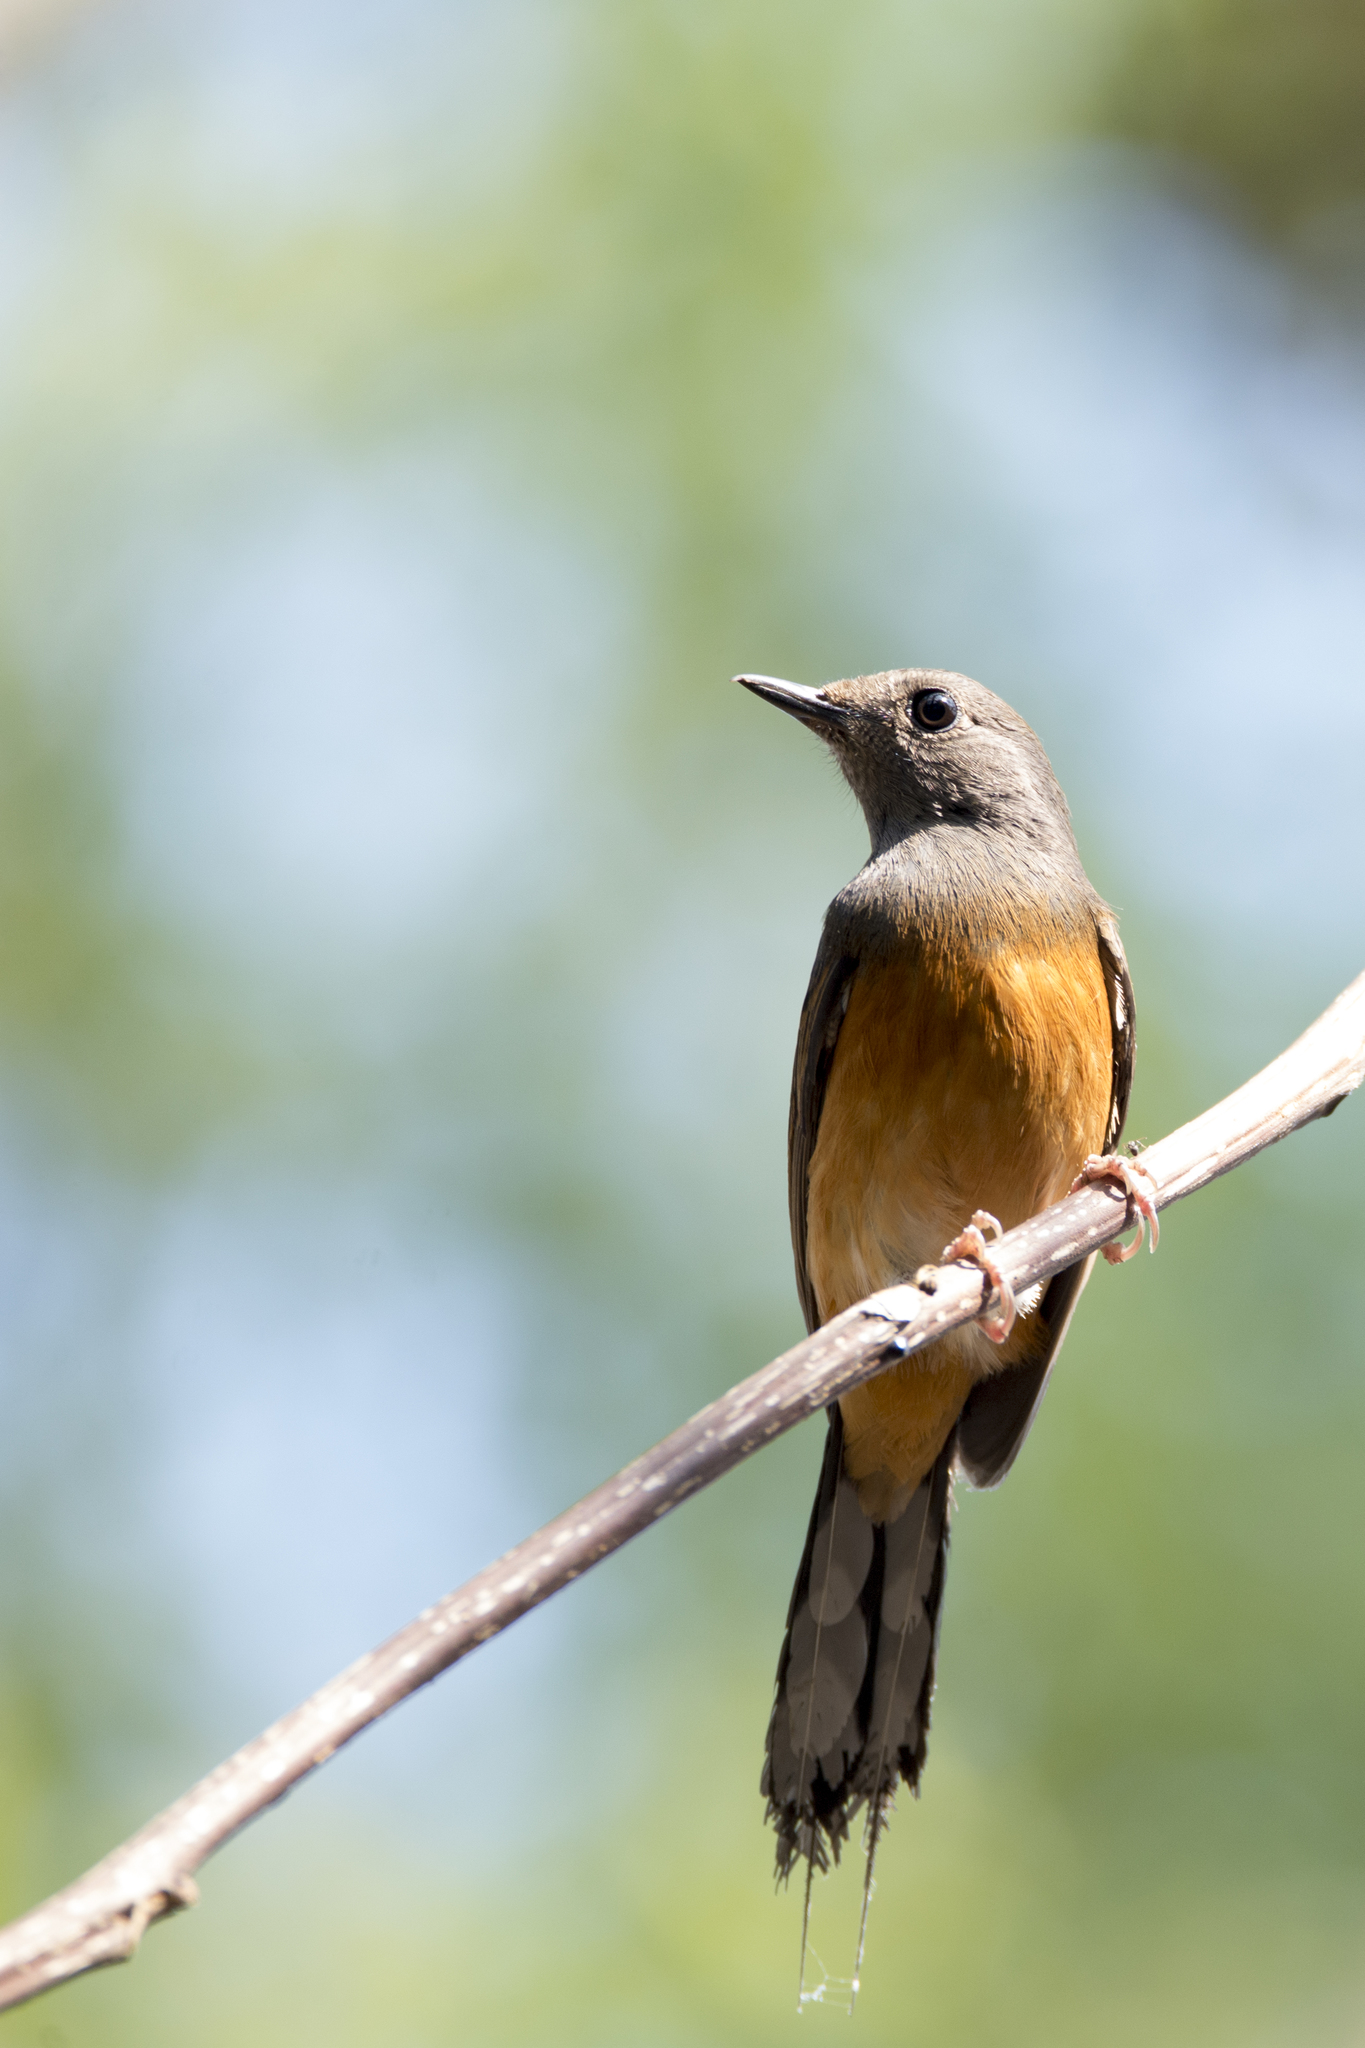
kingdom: Animalia
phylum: Chordata
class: Aves
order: Passeriformes
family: Muscicapidae
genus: Copsychus
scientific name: Copsychus malabaricus
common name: White-rumped shama
